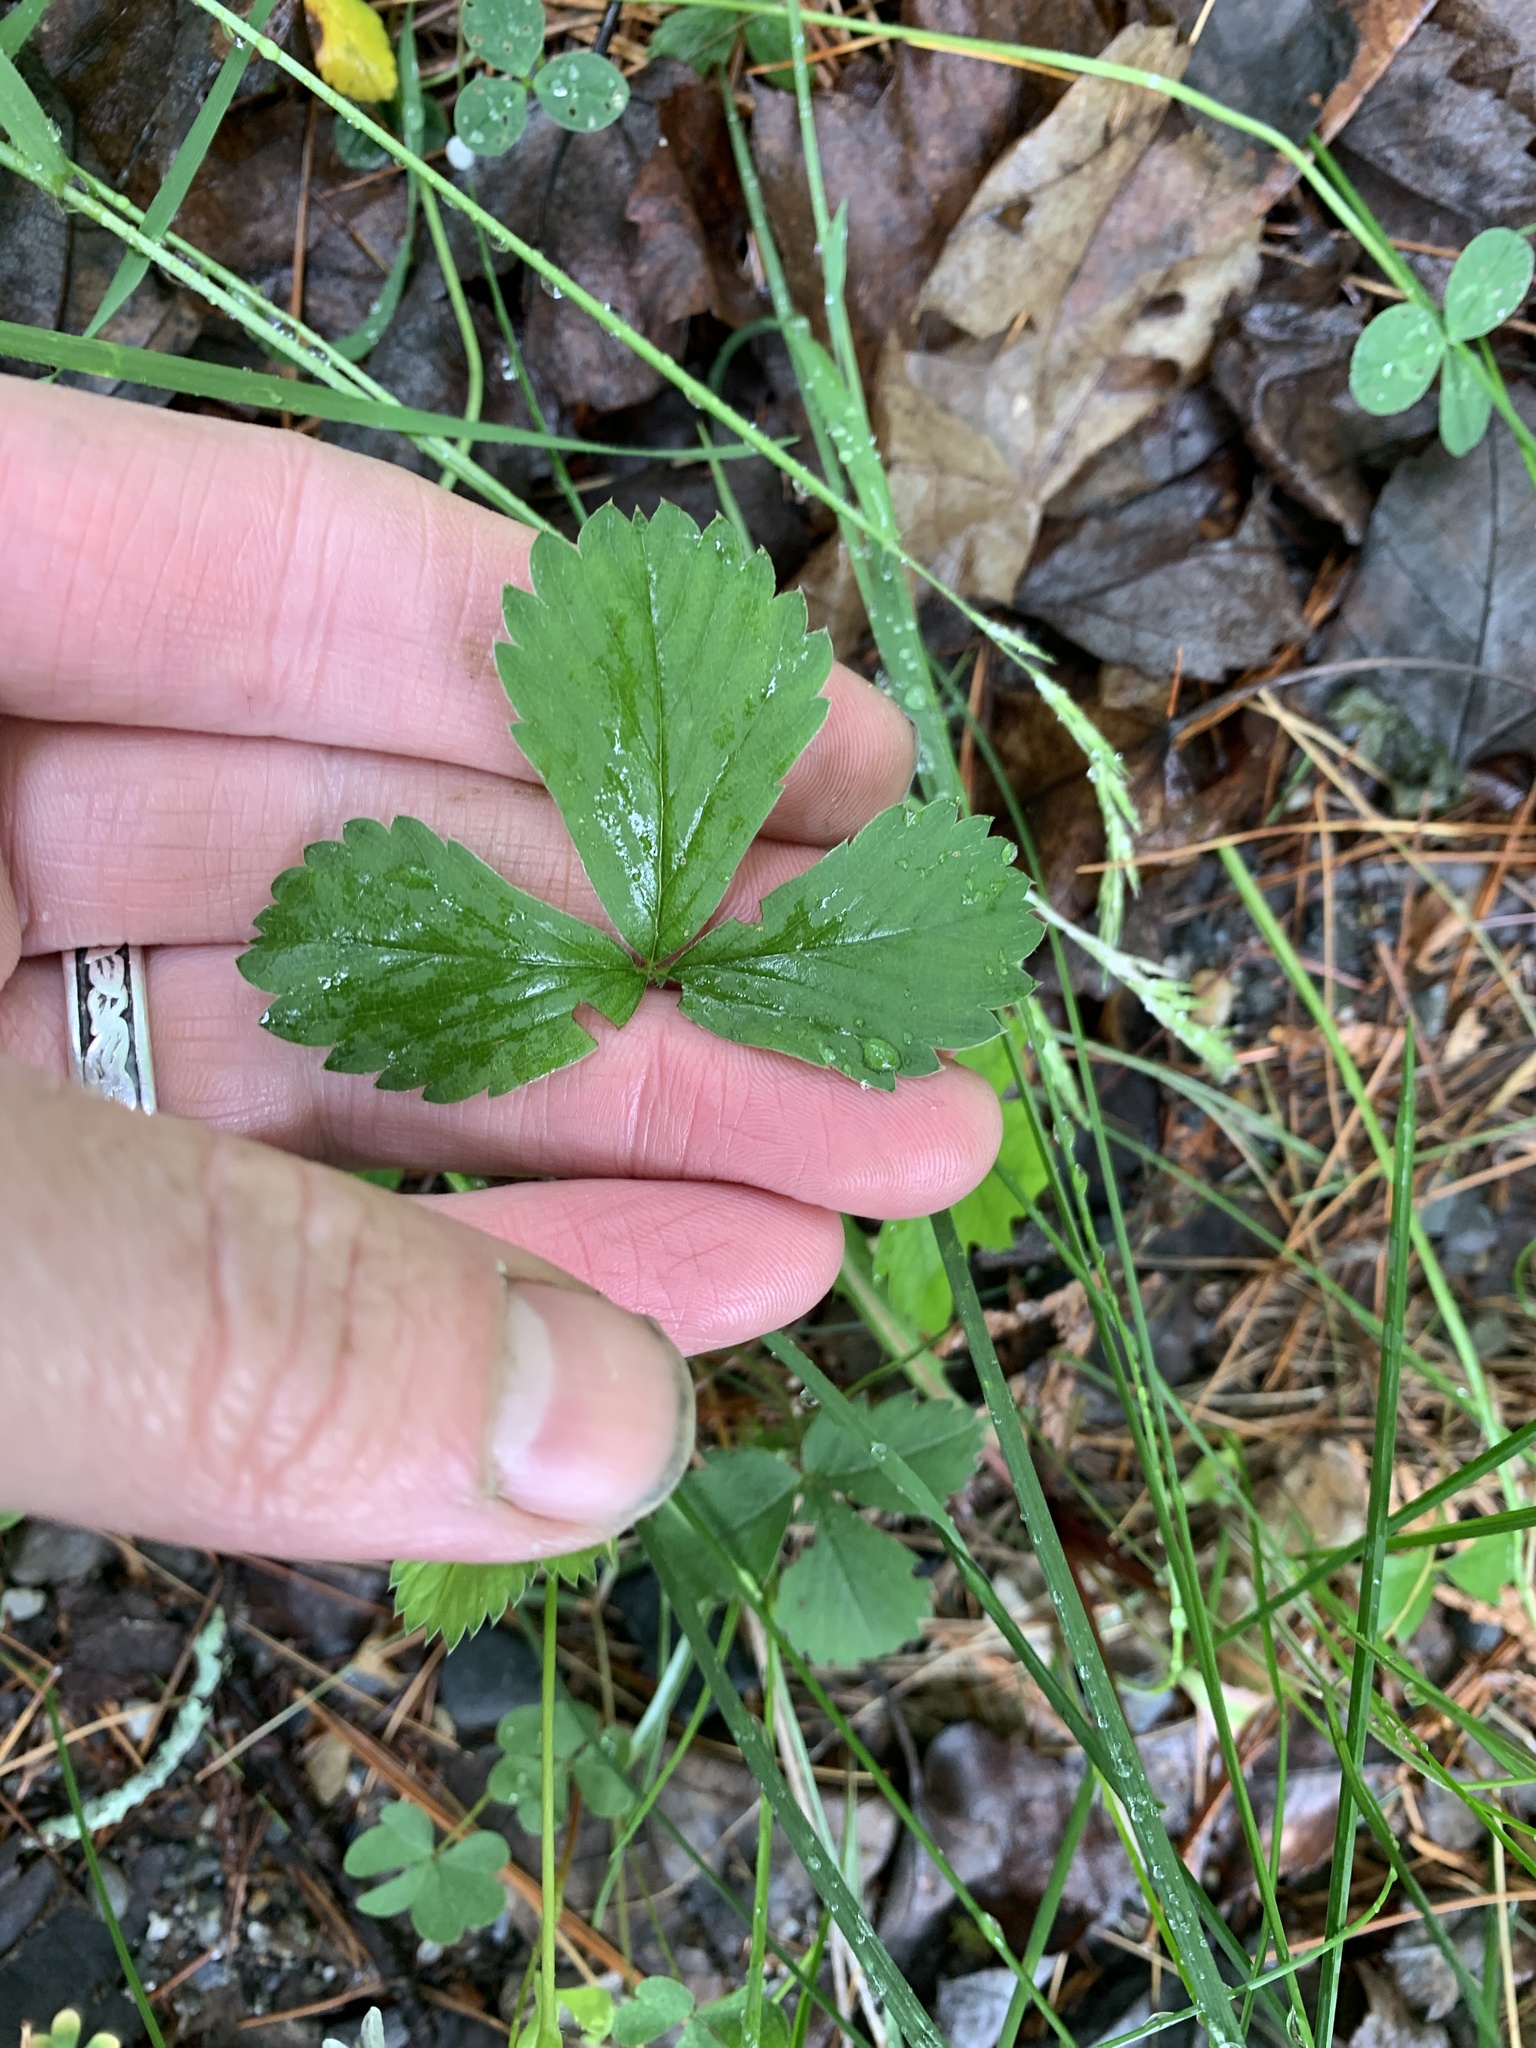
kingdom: Plantae
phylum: Tracheophyta
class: Magnoliopsida
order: Rosales
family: Rosaceae
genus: Fragaria
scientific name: Fragaria virginiana
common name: Thickleaved wild strawberry
